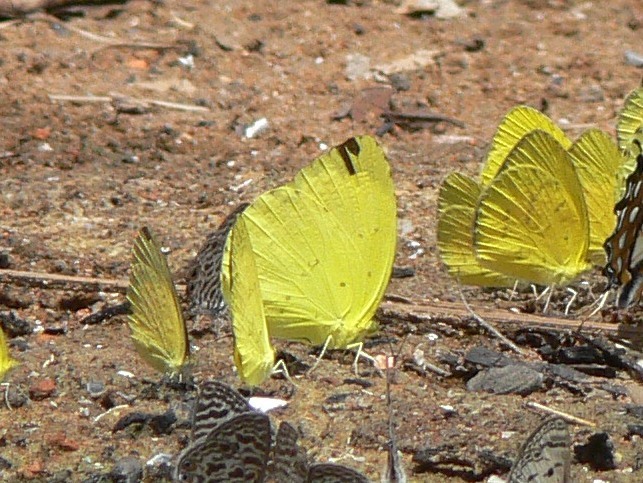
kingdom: Animalia
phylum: Arthropoda
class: Insecta
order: Lepidoptera
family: Pieridae
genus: Eurema
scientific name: Eurema senegalensis
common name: Forest grass yellow
